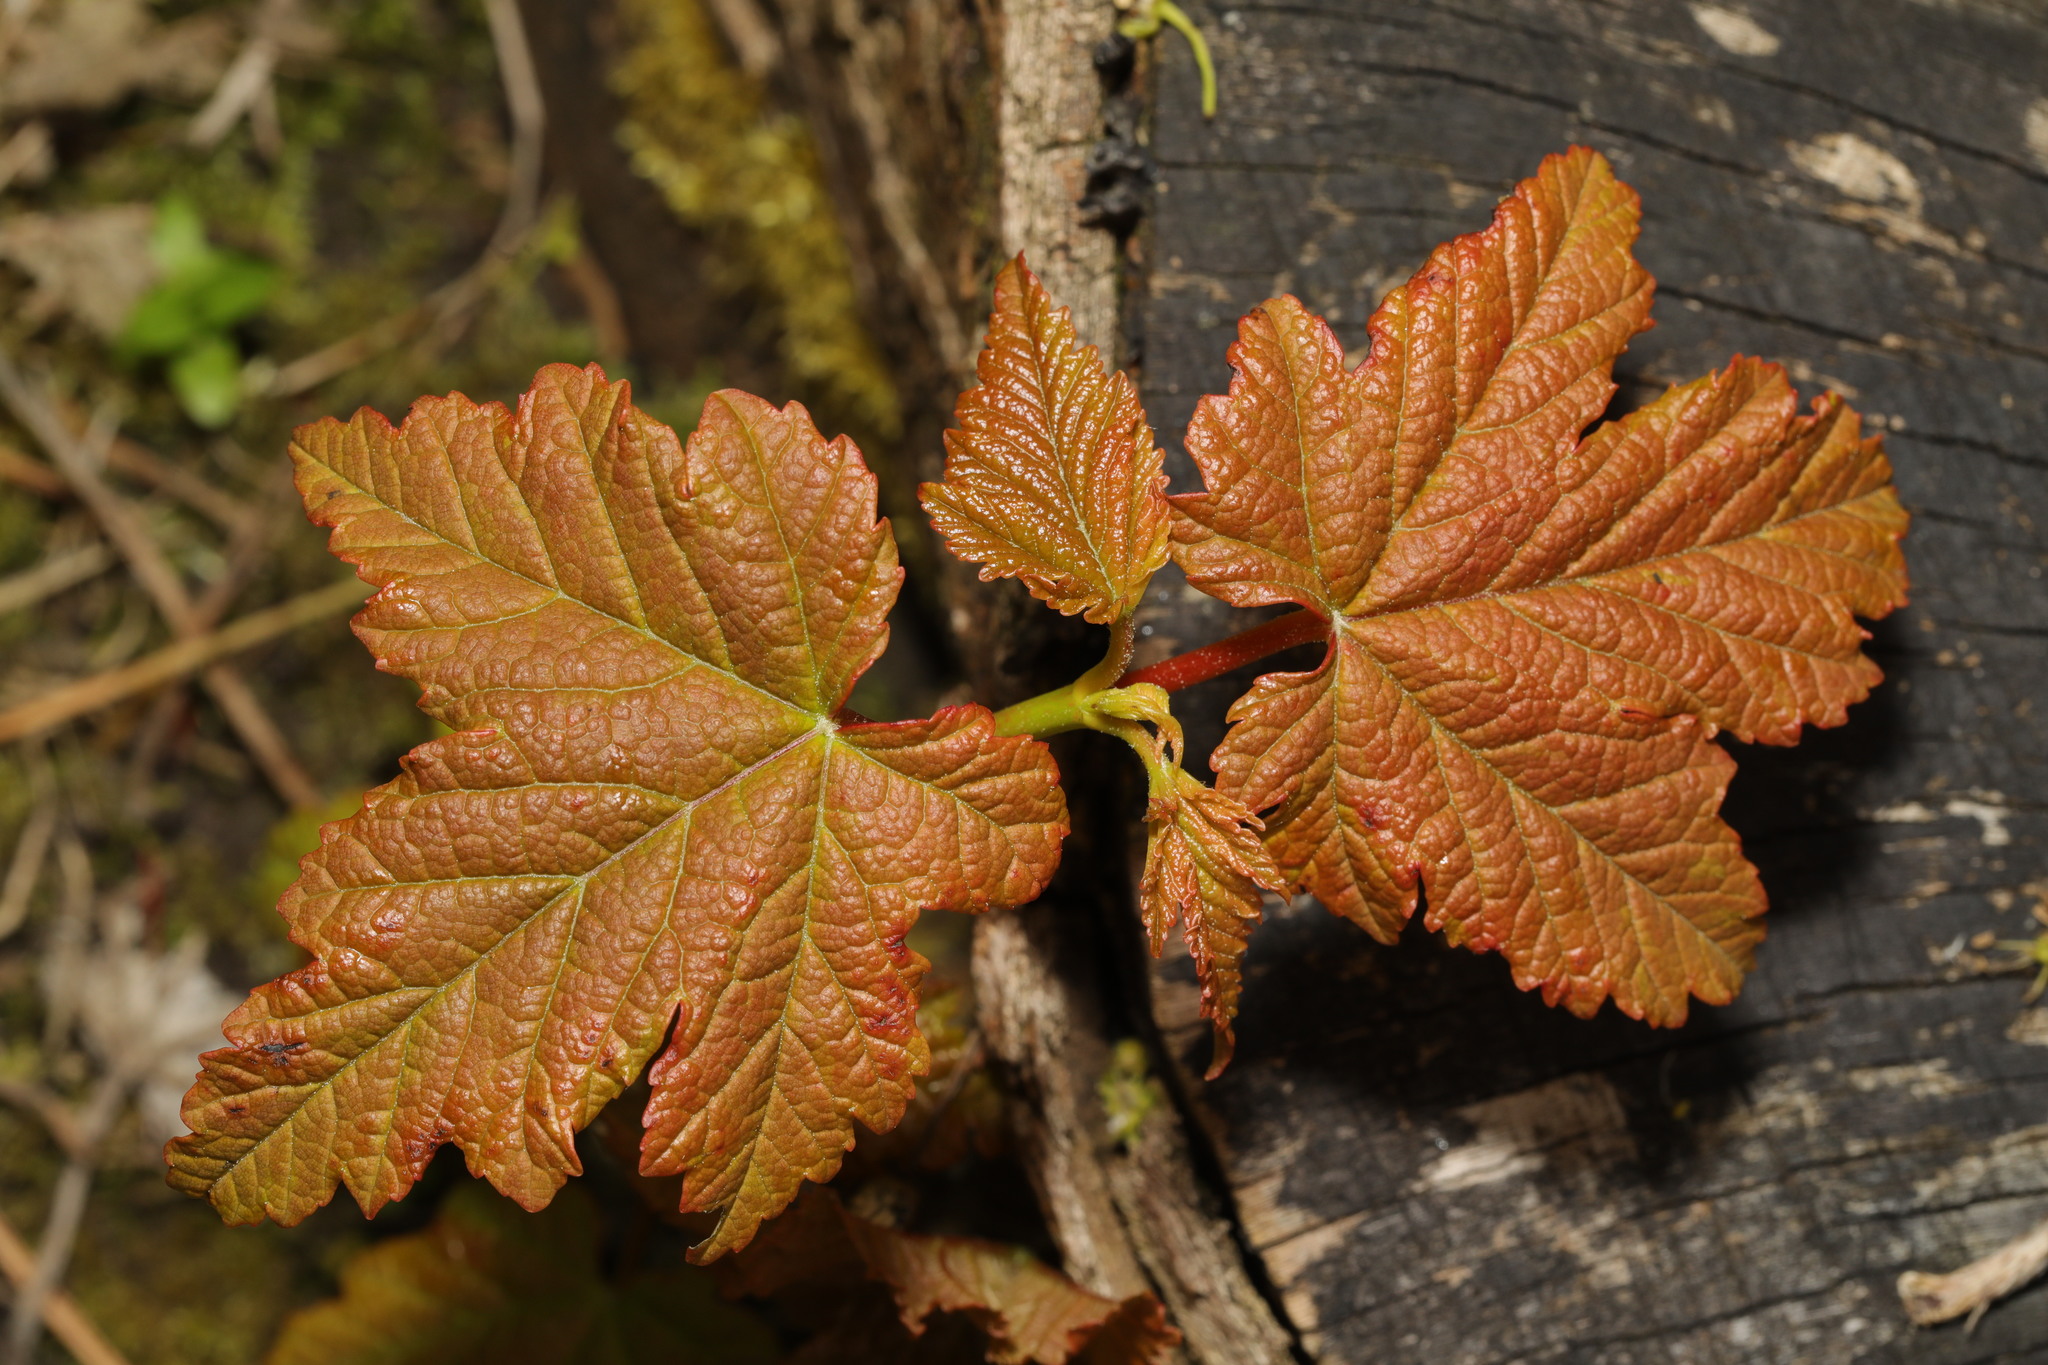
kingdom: Plantae
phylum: Tracheophyta
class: Magnoliopsida
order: Sapindales
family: Sapindaceae
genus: Acer
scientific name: Acer pseudoplatanus
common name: Sycamore
